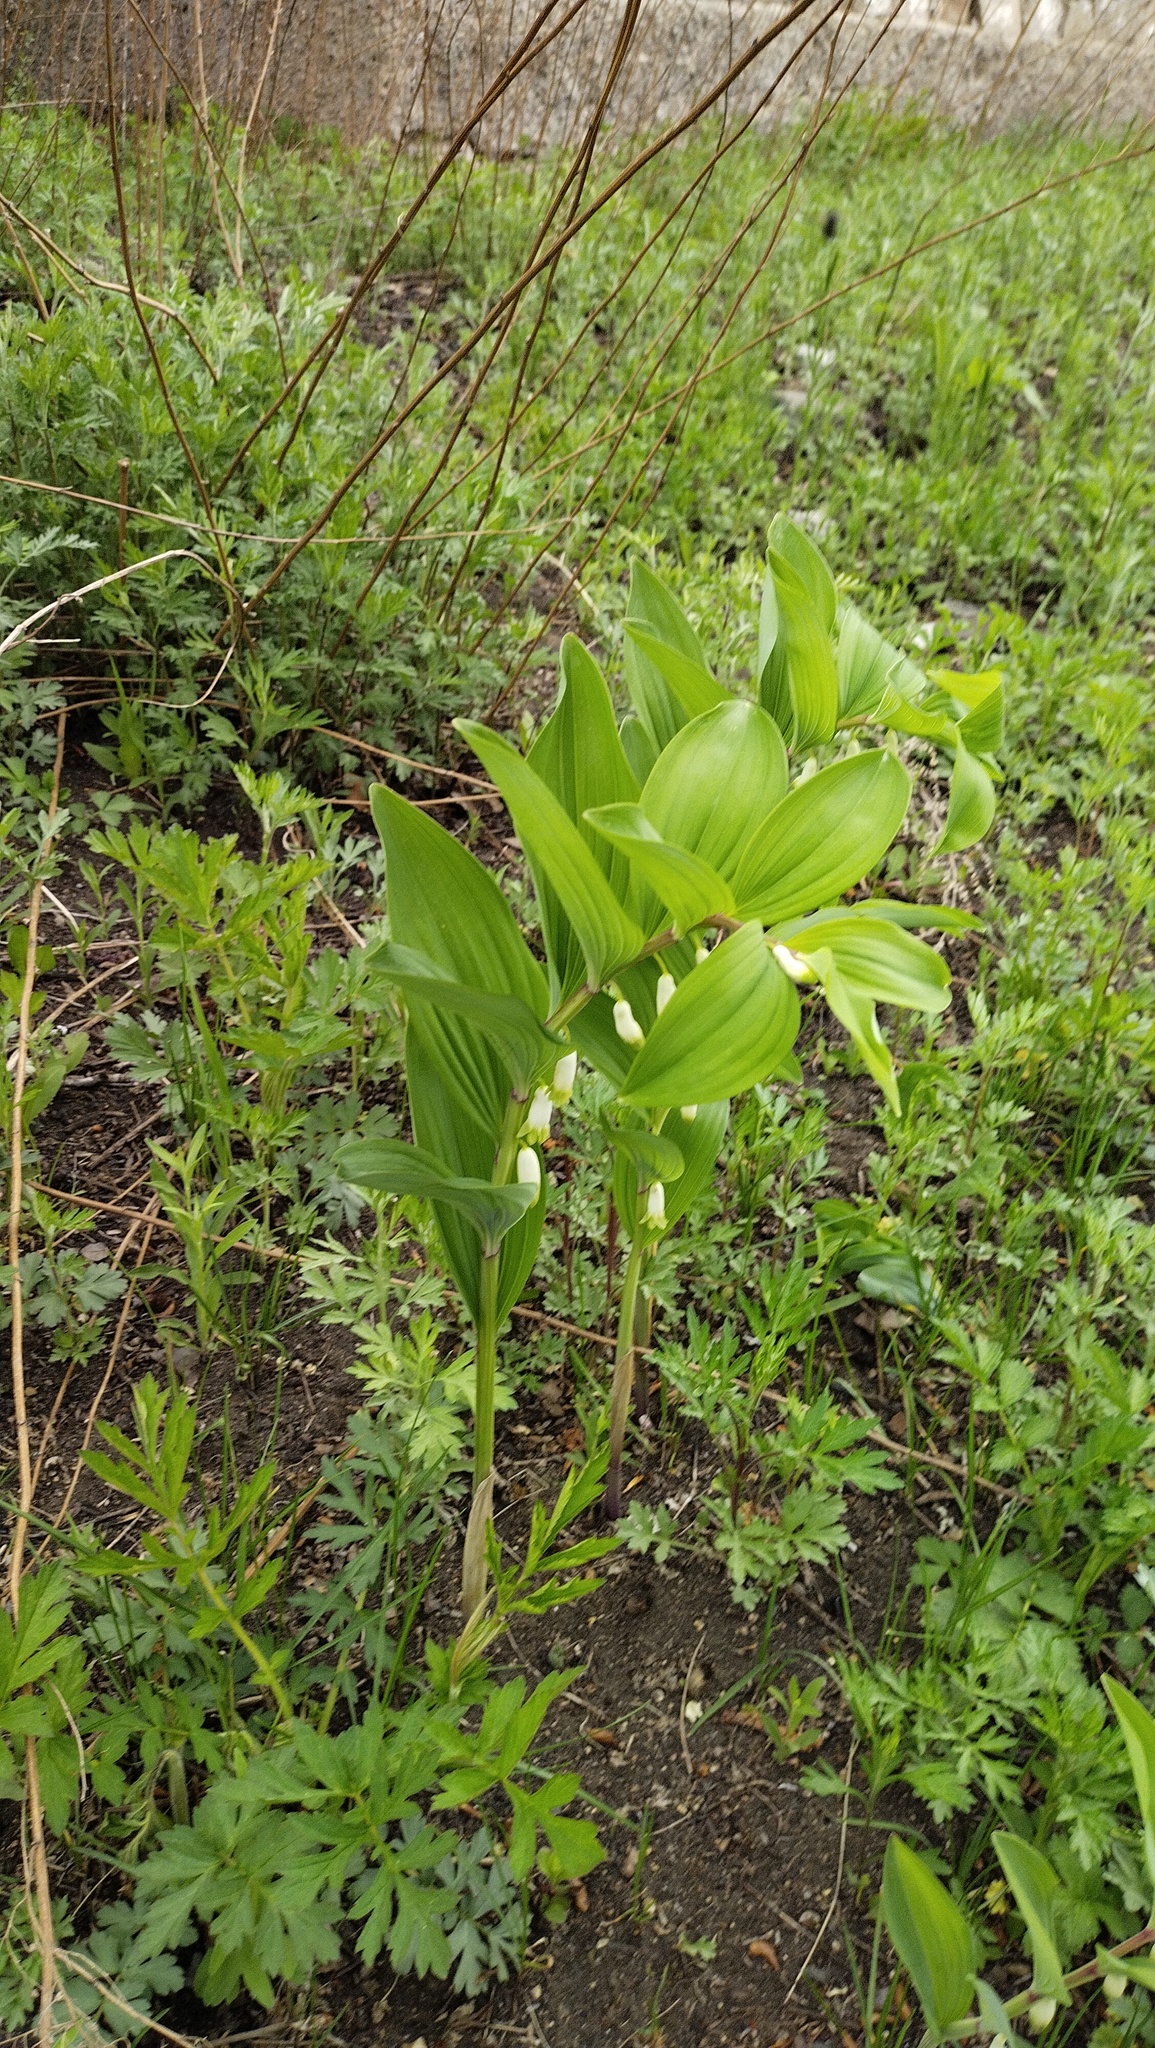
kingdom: Plantae
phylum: Tracheophyta
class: Liliopsida
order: Asparagales
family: Asparagaceae
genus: Polygonatum
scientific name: Polygonatum odoratum
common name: Angular solomon's-seal
